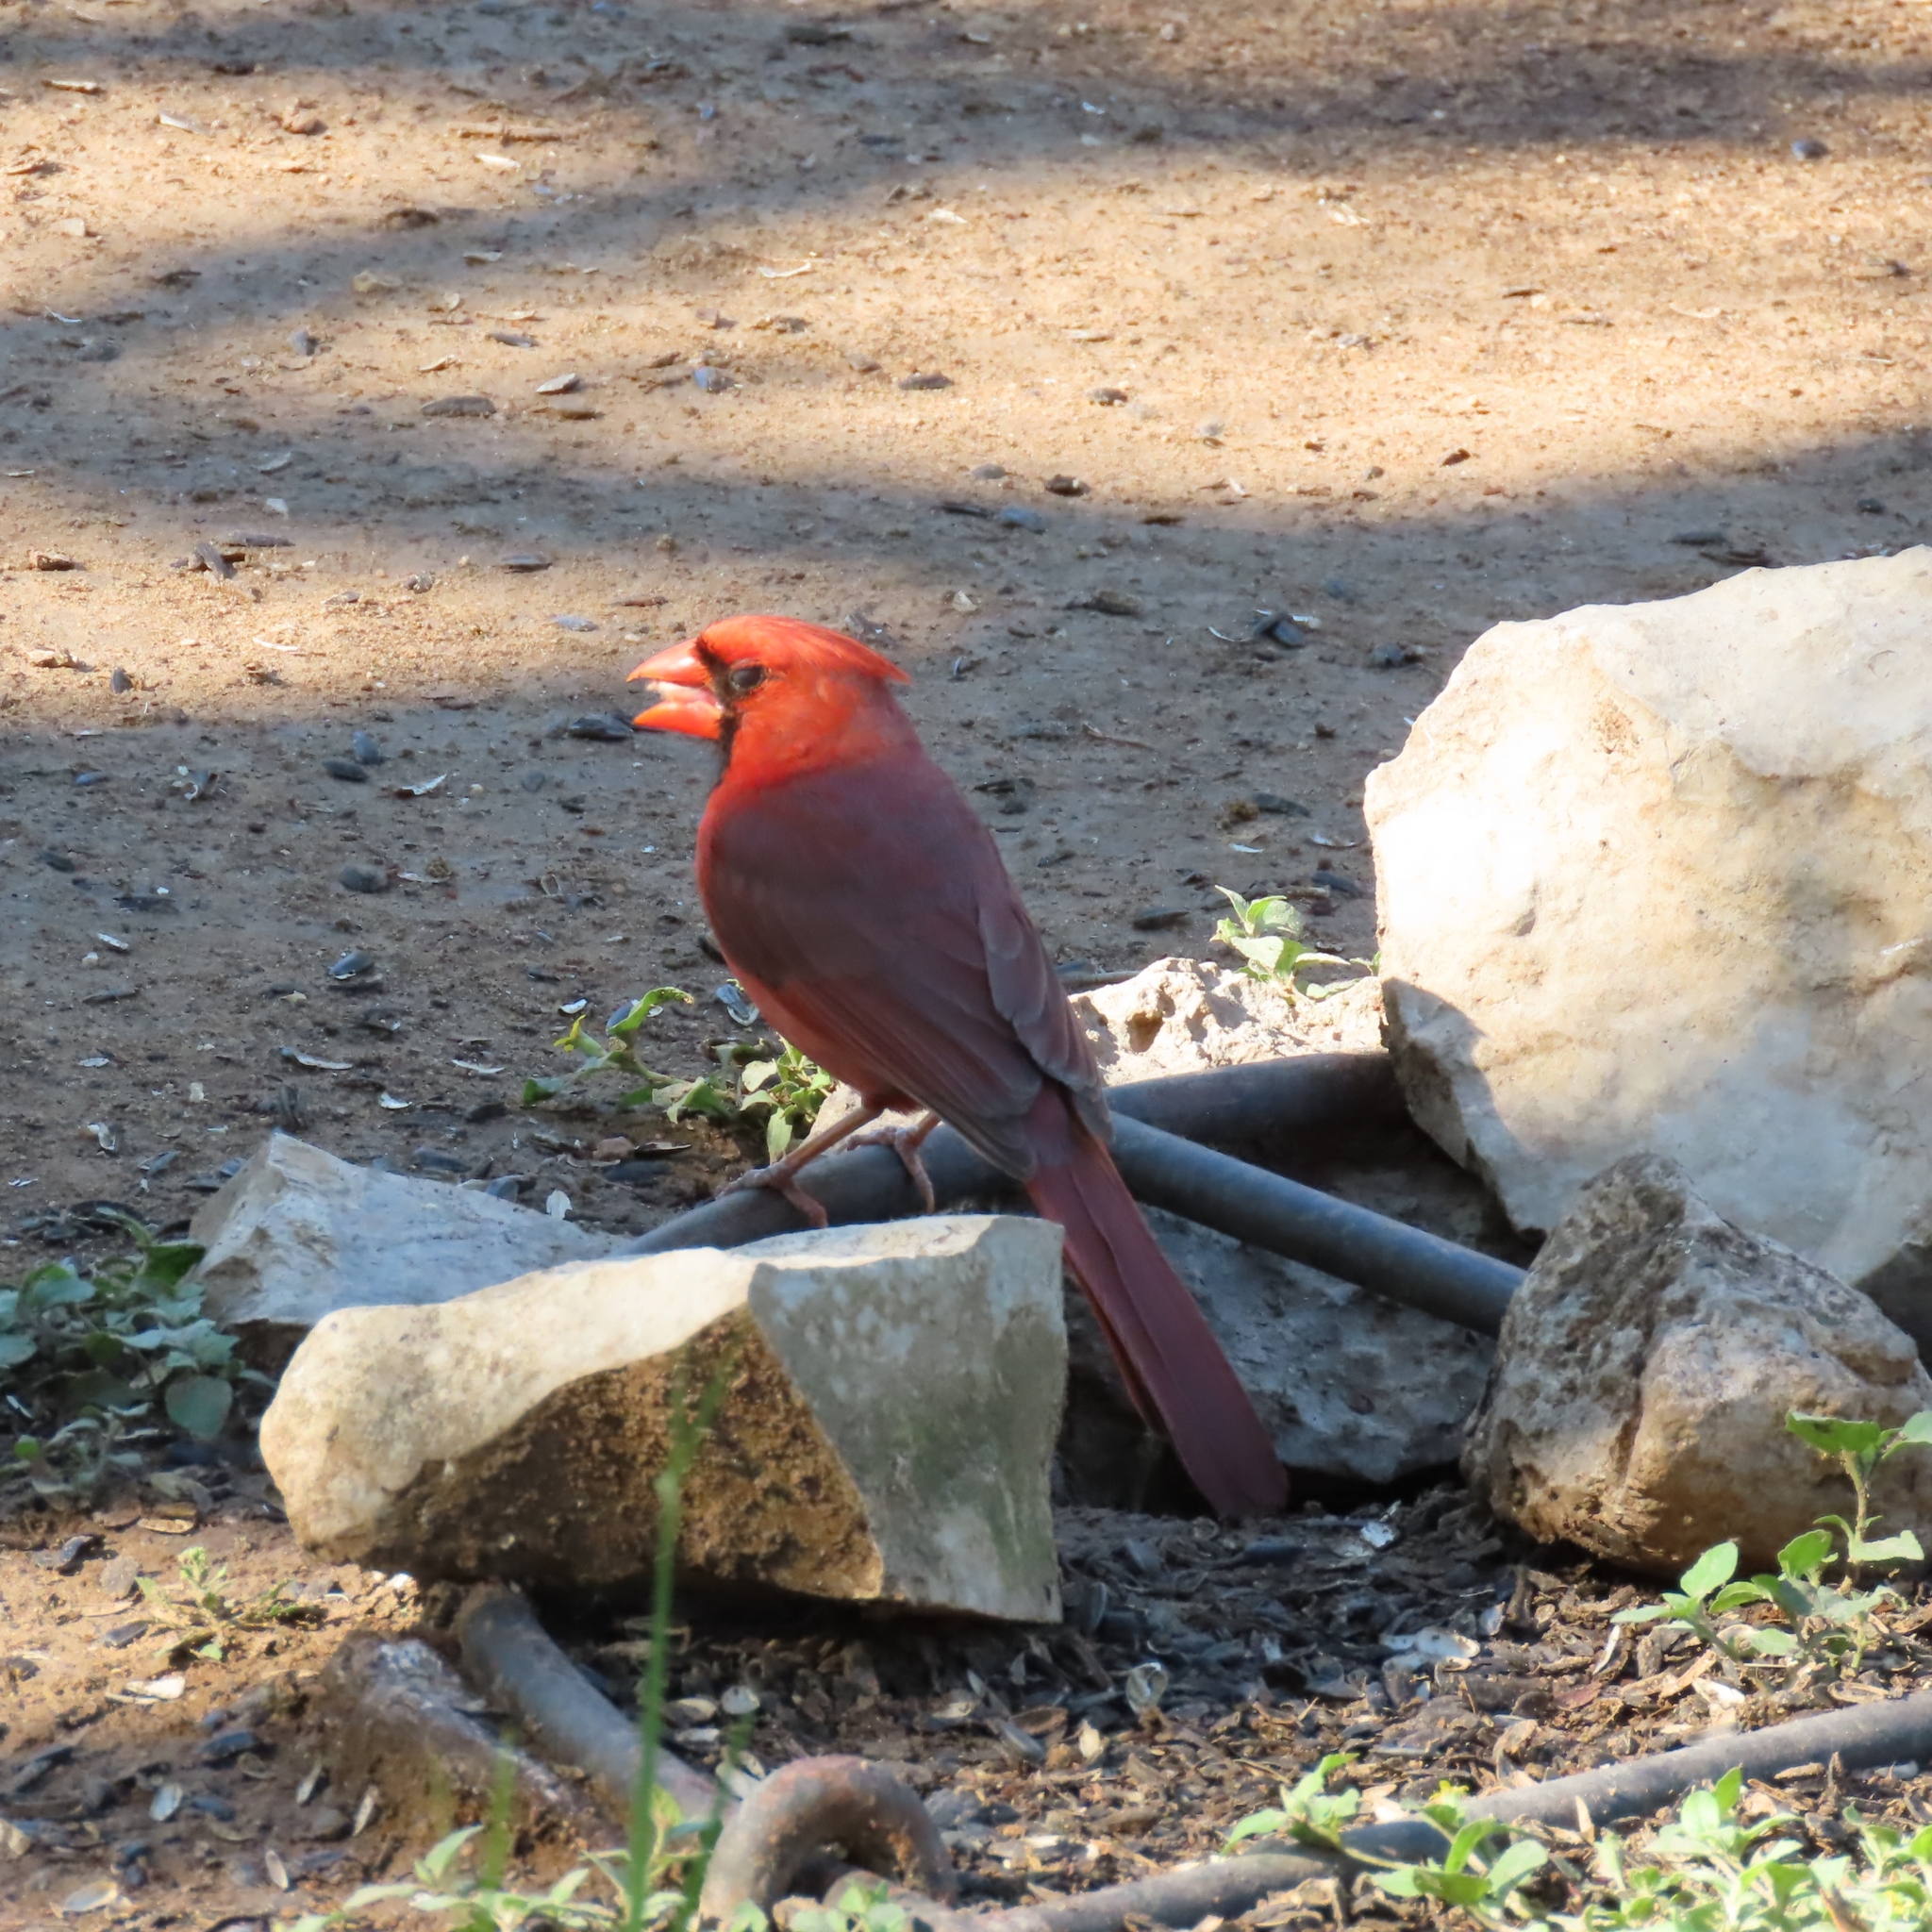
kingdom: Animalia
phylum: Chordata
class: Aves
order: Passeriformes
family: Cardinalidae
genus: Cardinalis
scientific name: Cardinalis cardinalis
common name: Northern cardinal
